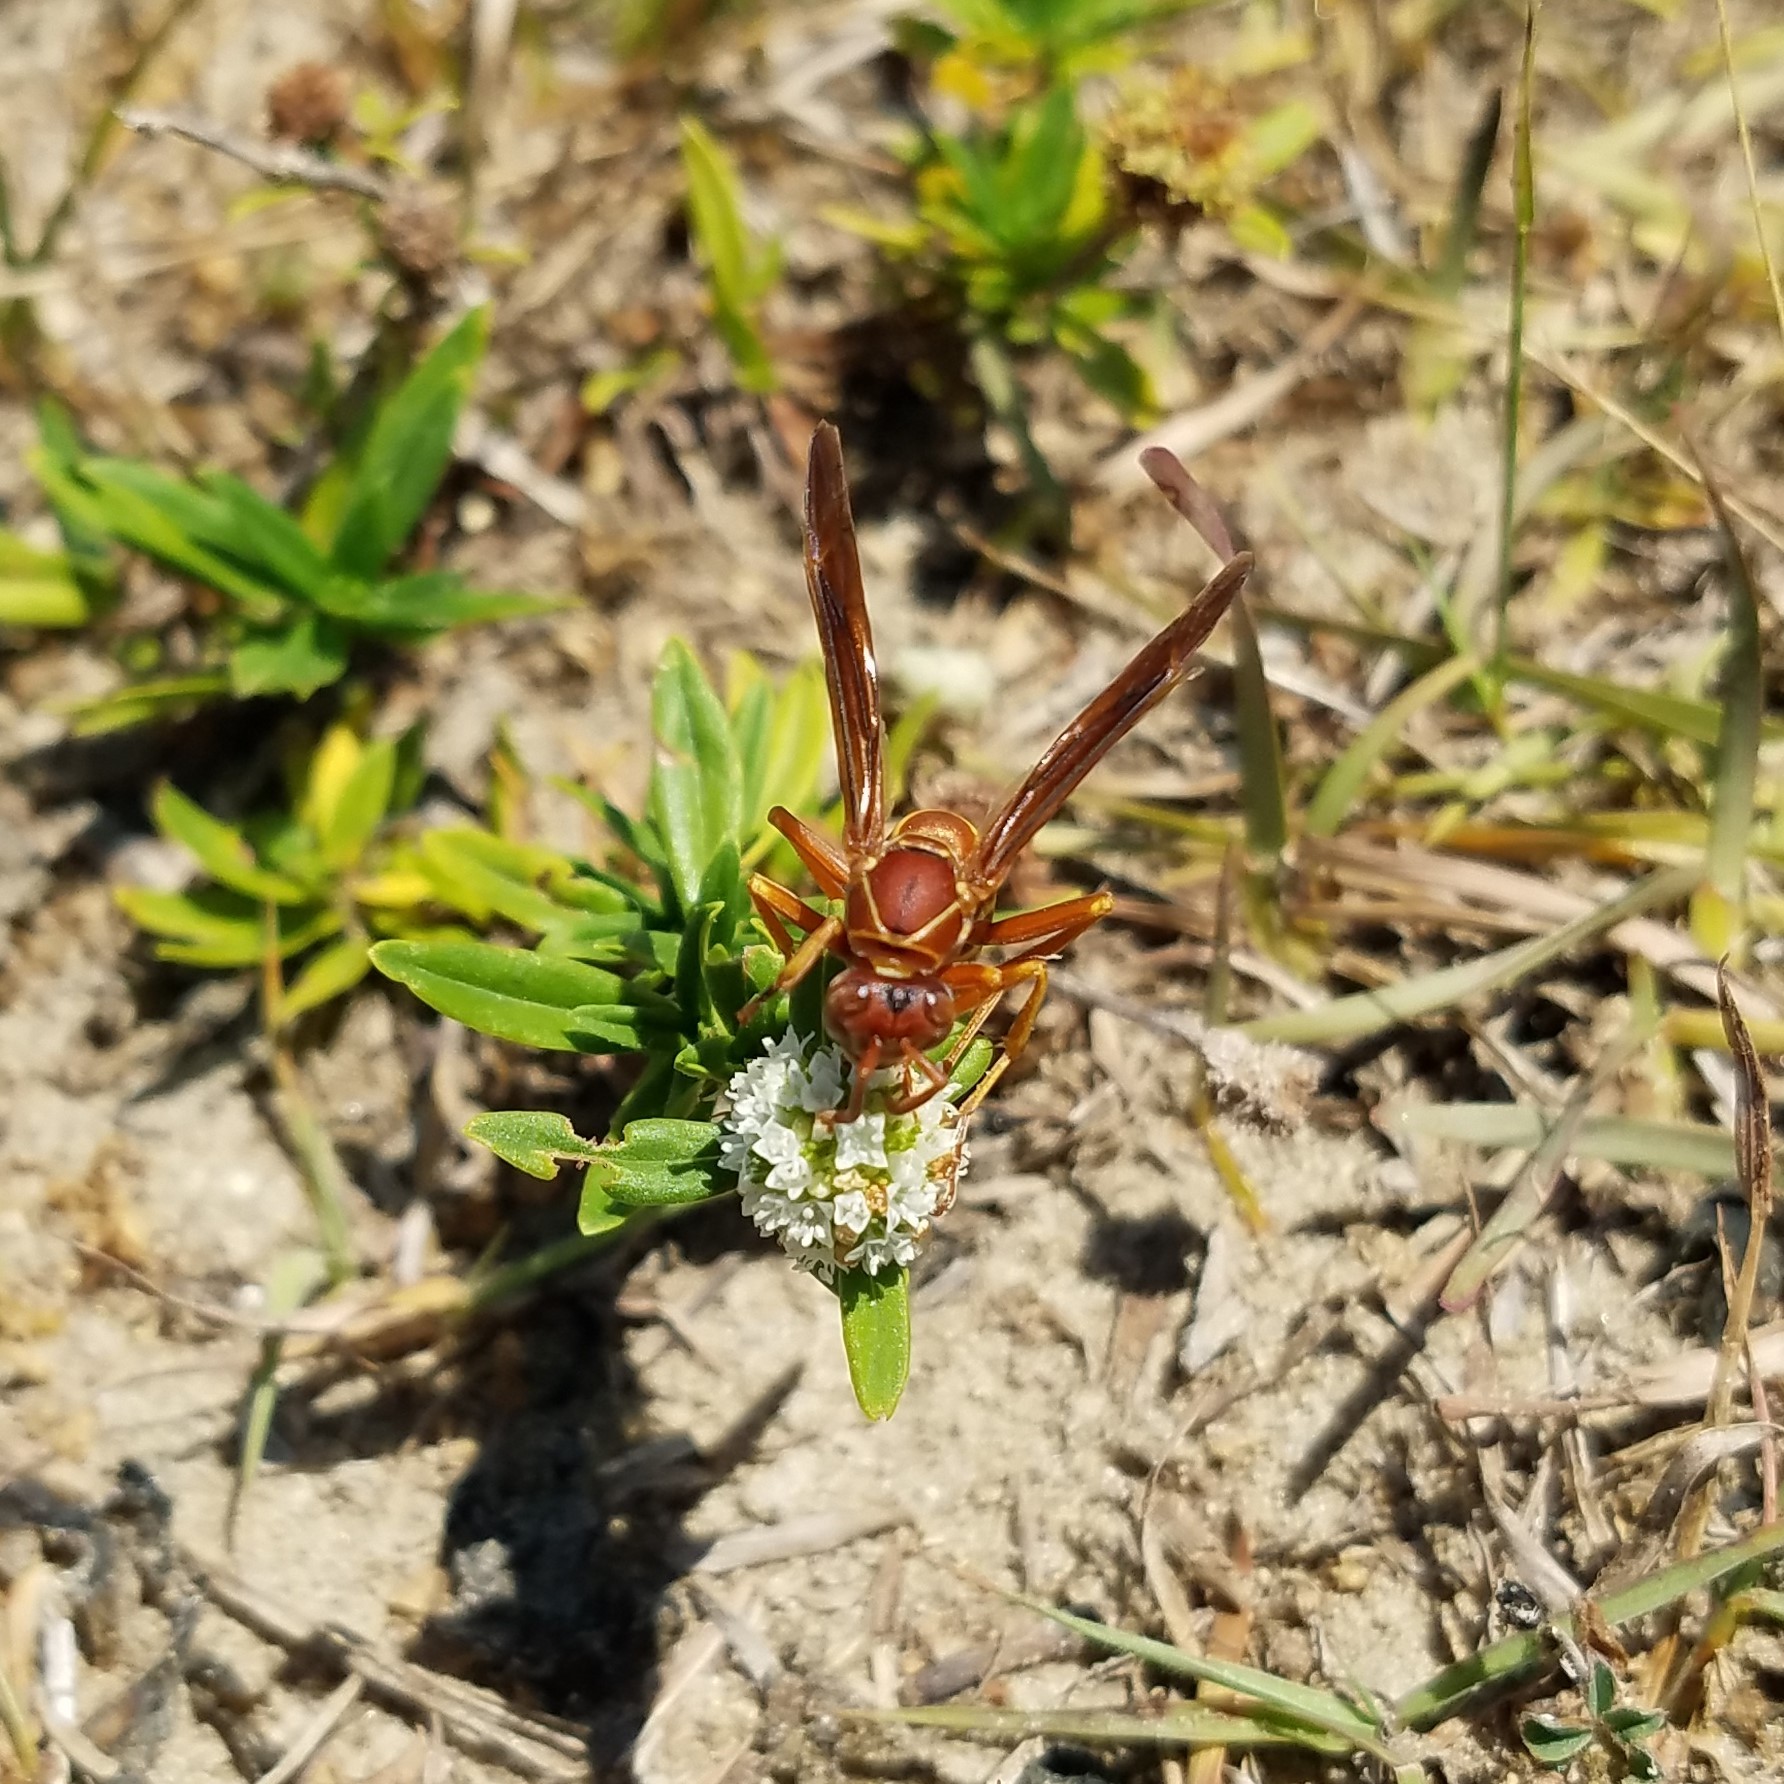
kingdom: Animalia
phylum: Arthropoda
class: Insecta
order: Hymenoptera
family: Eumenidae
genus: Polistes
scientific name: Polistes bellicosus
